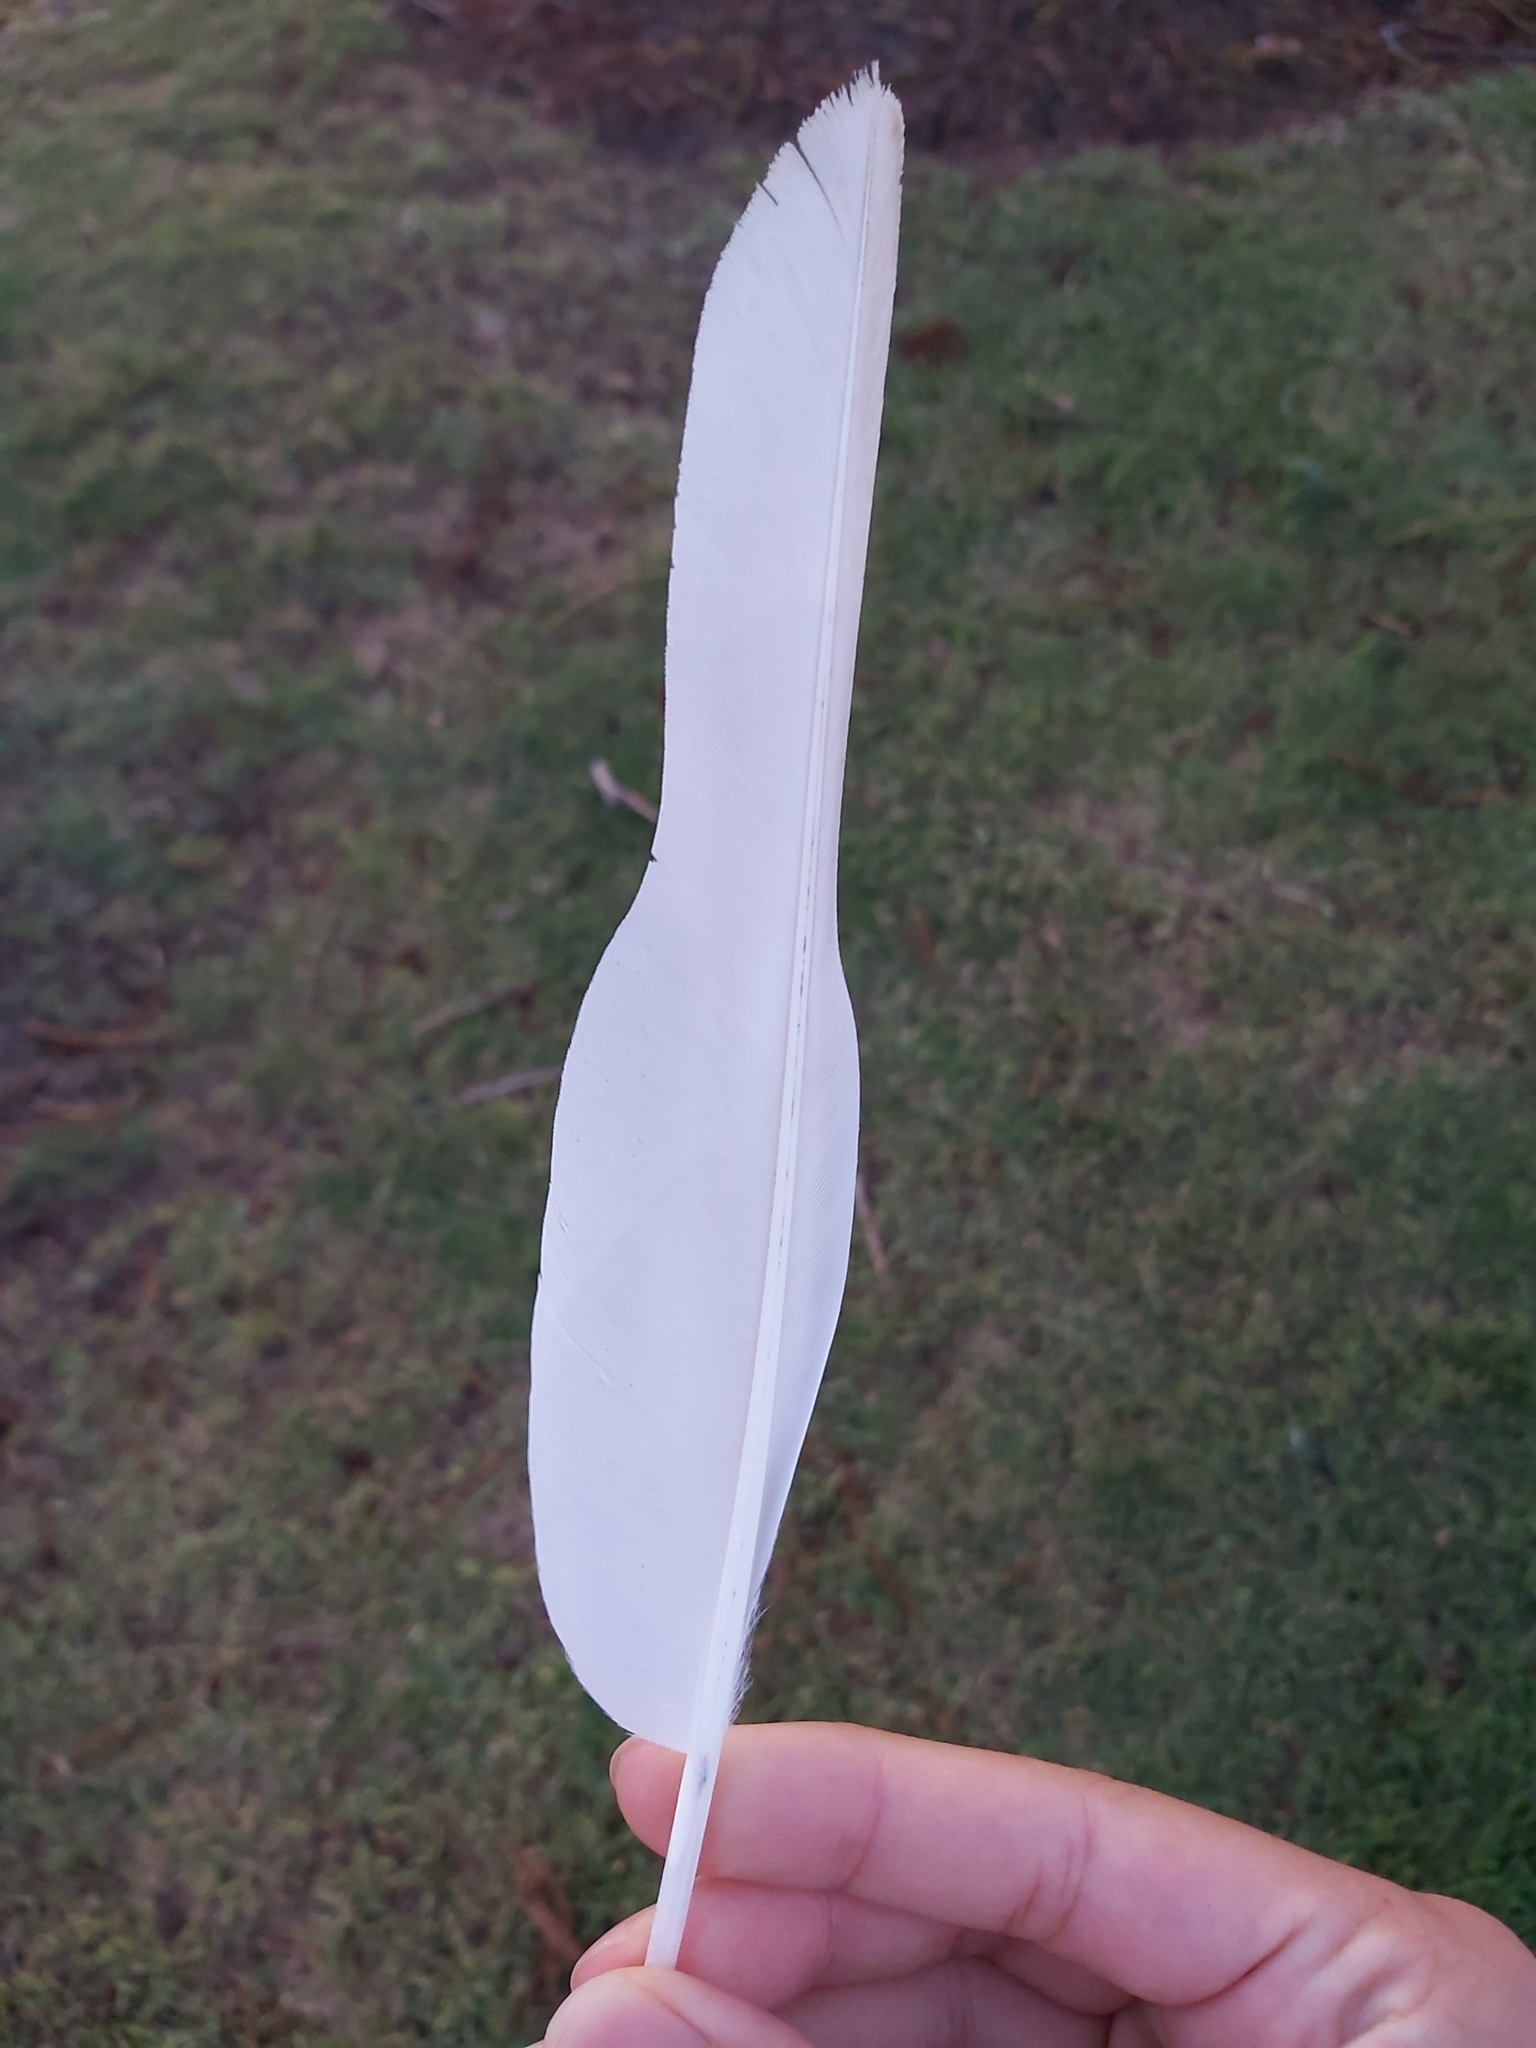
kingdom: Animalia
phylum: Chordata
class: Aves
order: Psittaciformes
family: Psittacidae
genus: Cacatua
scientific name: Cacatua tenuirostris
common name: Long-billed corella
